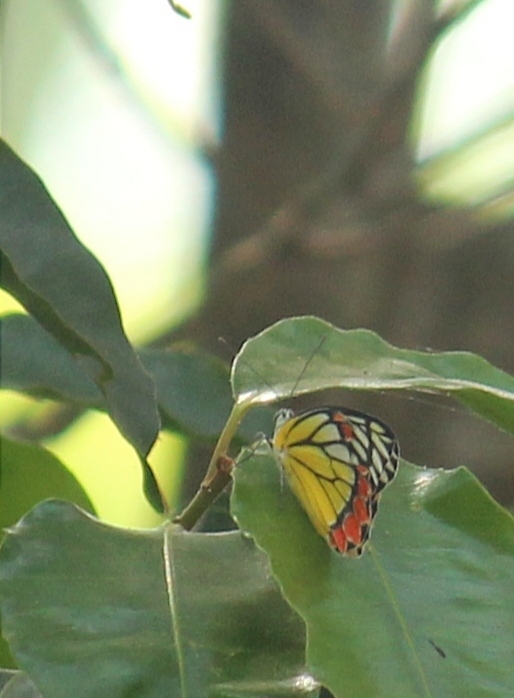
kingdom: Animalia
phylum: Arthropoda
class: Insecta
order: Lepidoptera
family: Pieridae
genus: Delias
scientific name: Delias eucharis
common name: Common jezebel
